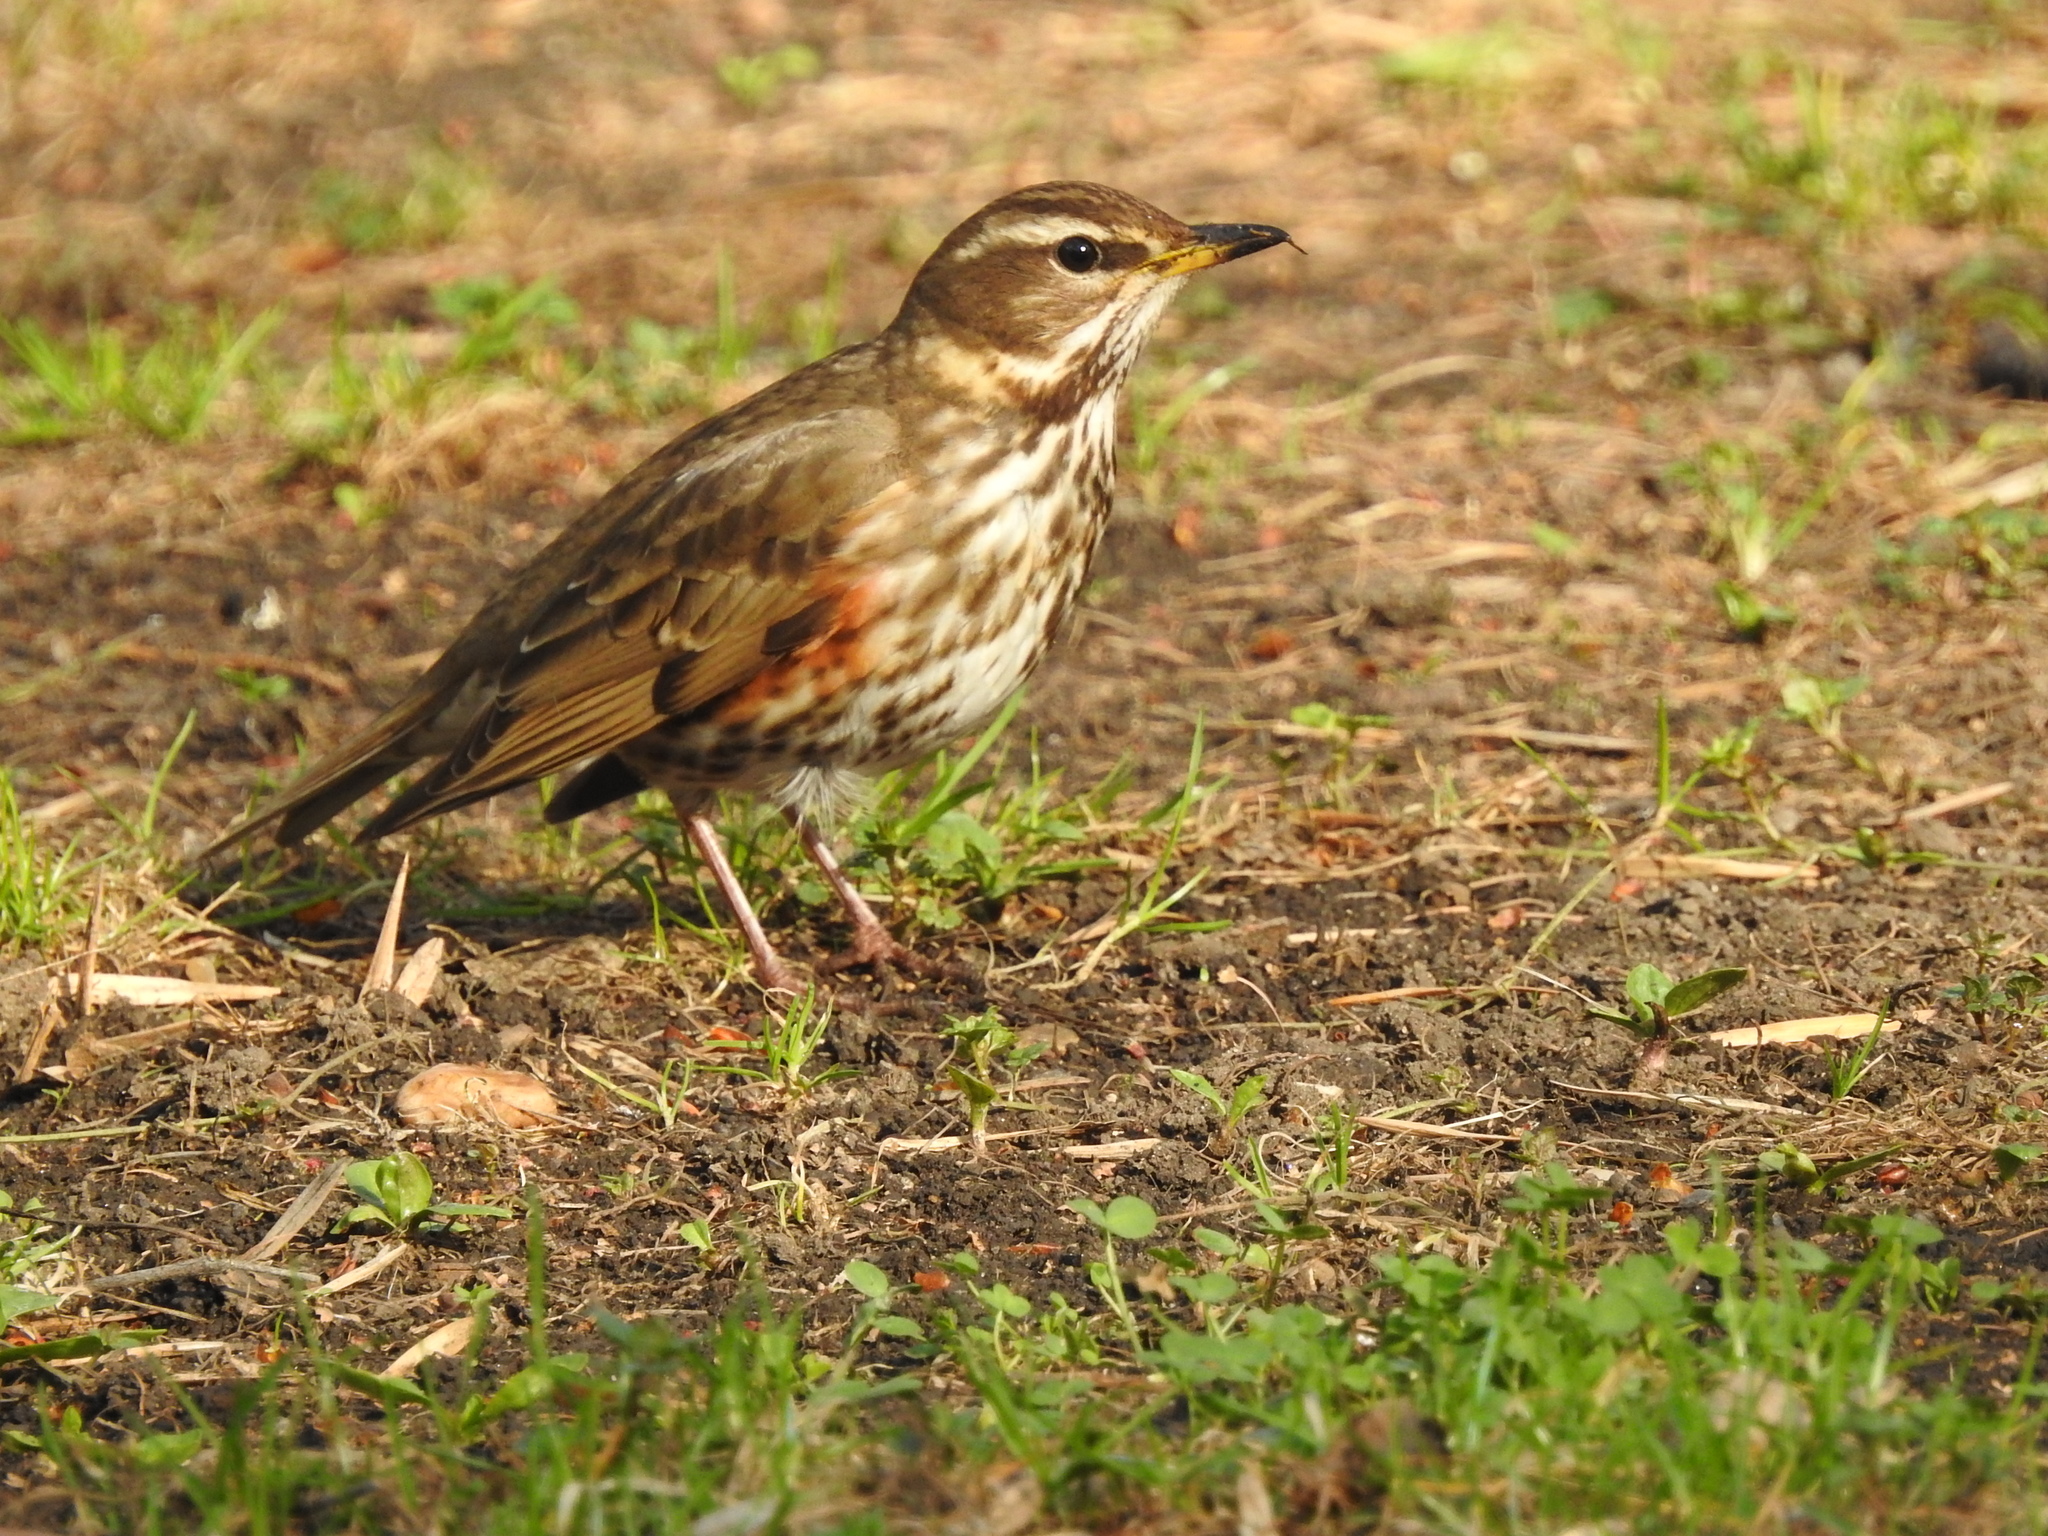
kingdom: Animalia
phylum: Chordata
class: Aves
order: Passeriformes
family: Turdidae
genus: Turdus
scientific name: Turdus iliacus
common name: Redwing
